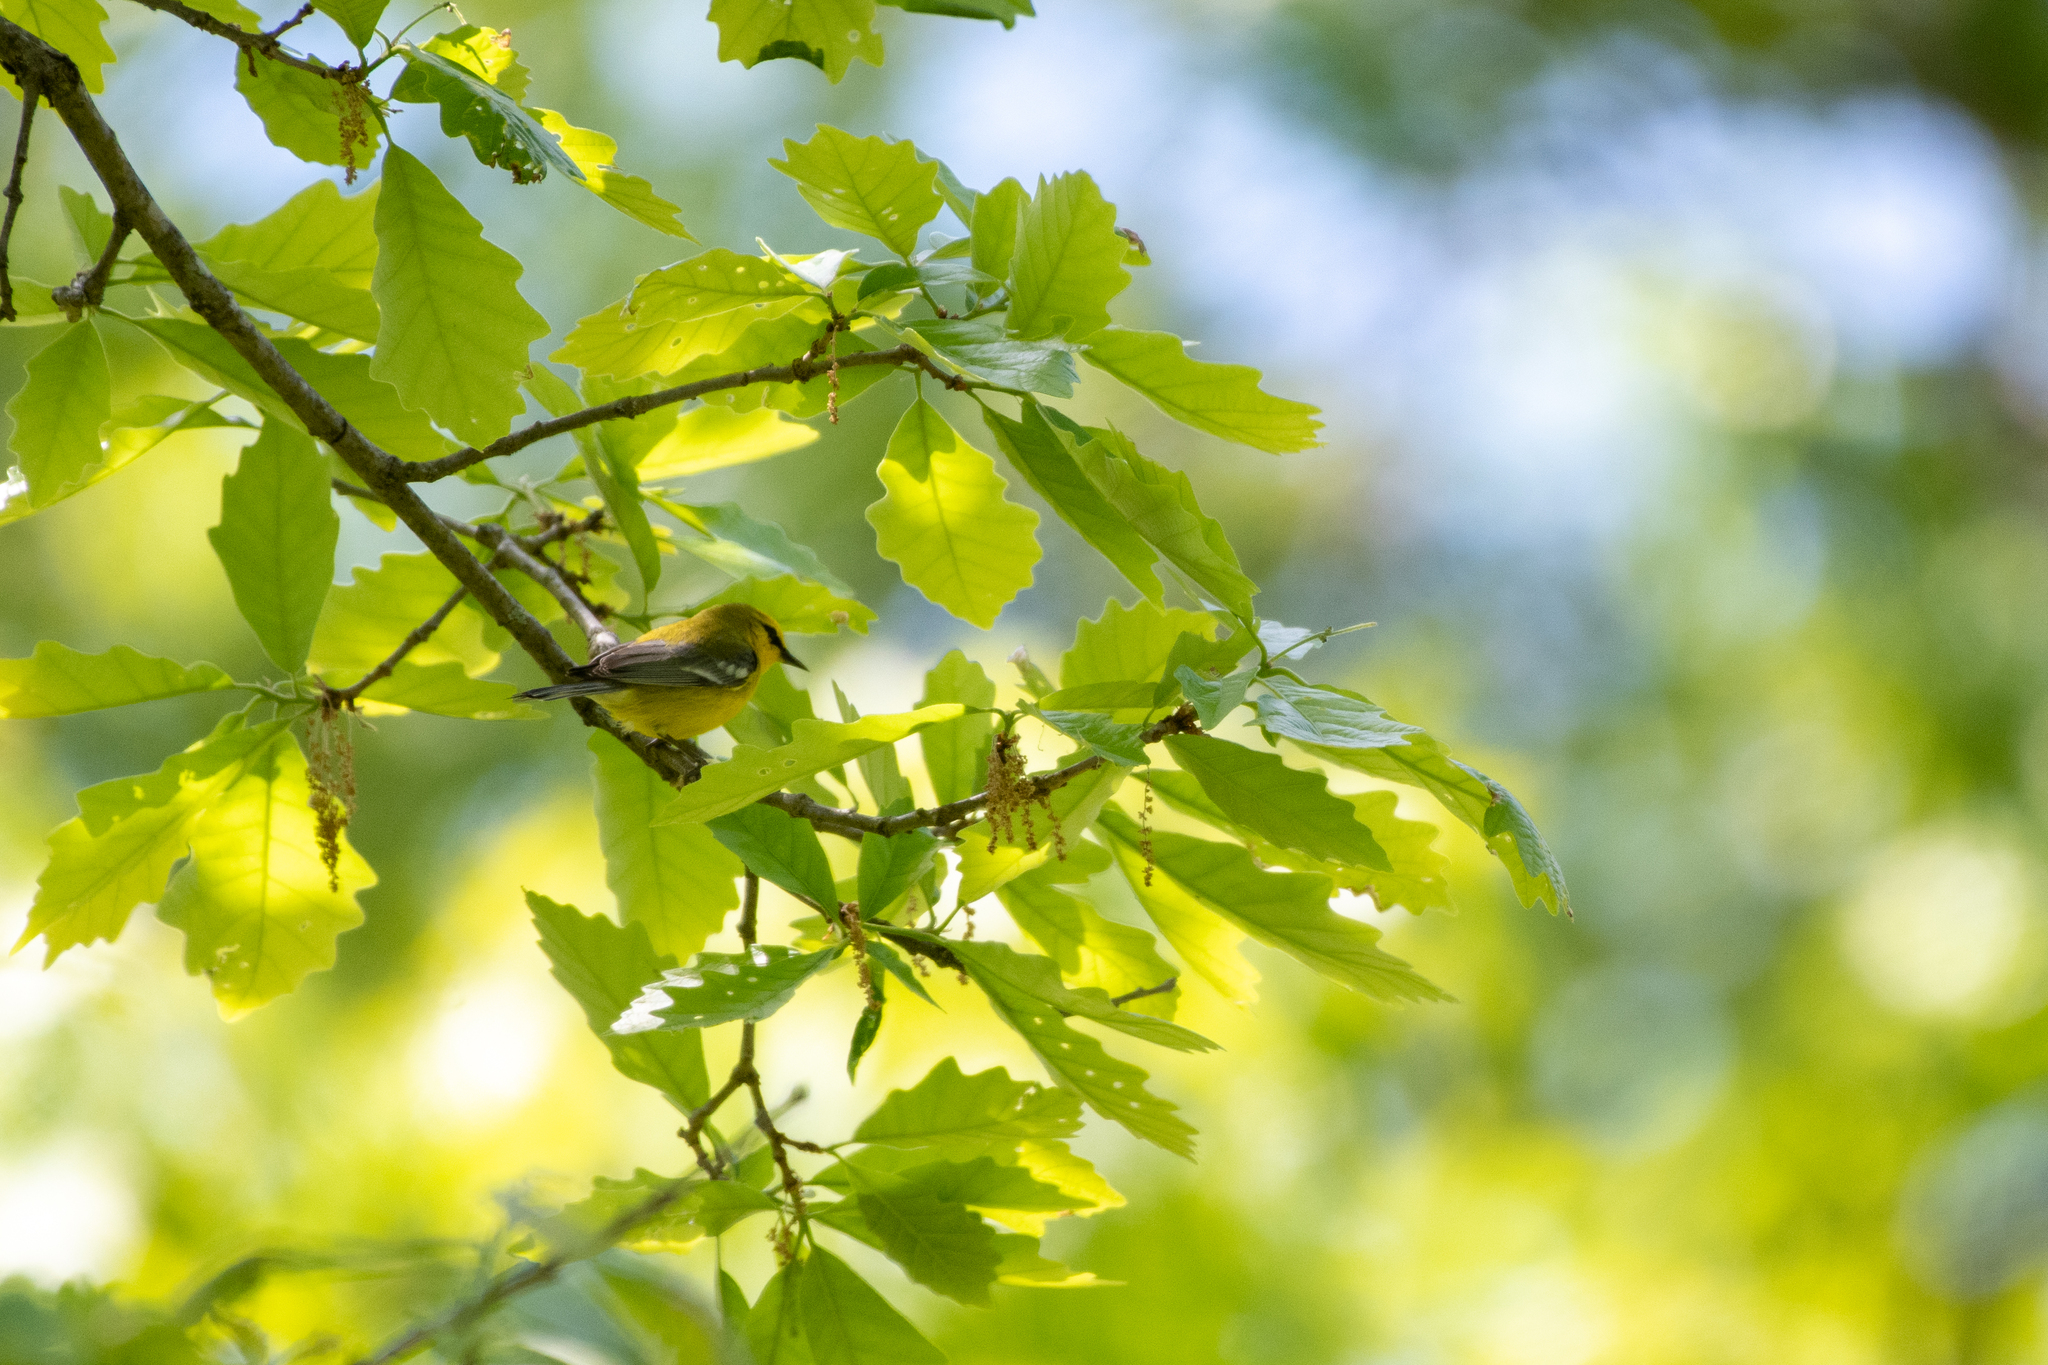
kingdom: Animalia
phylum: Chordata
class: Aves
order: Passeriformes
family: Parulidae
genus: Vermivora
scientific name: Vermivora cyanoptera
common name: Blue-winged warbler
